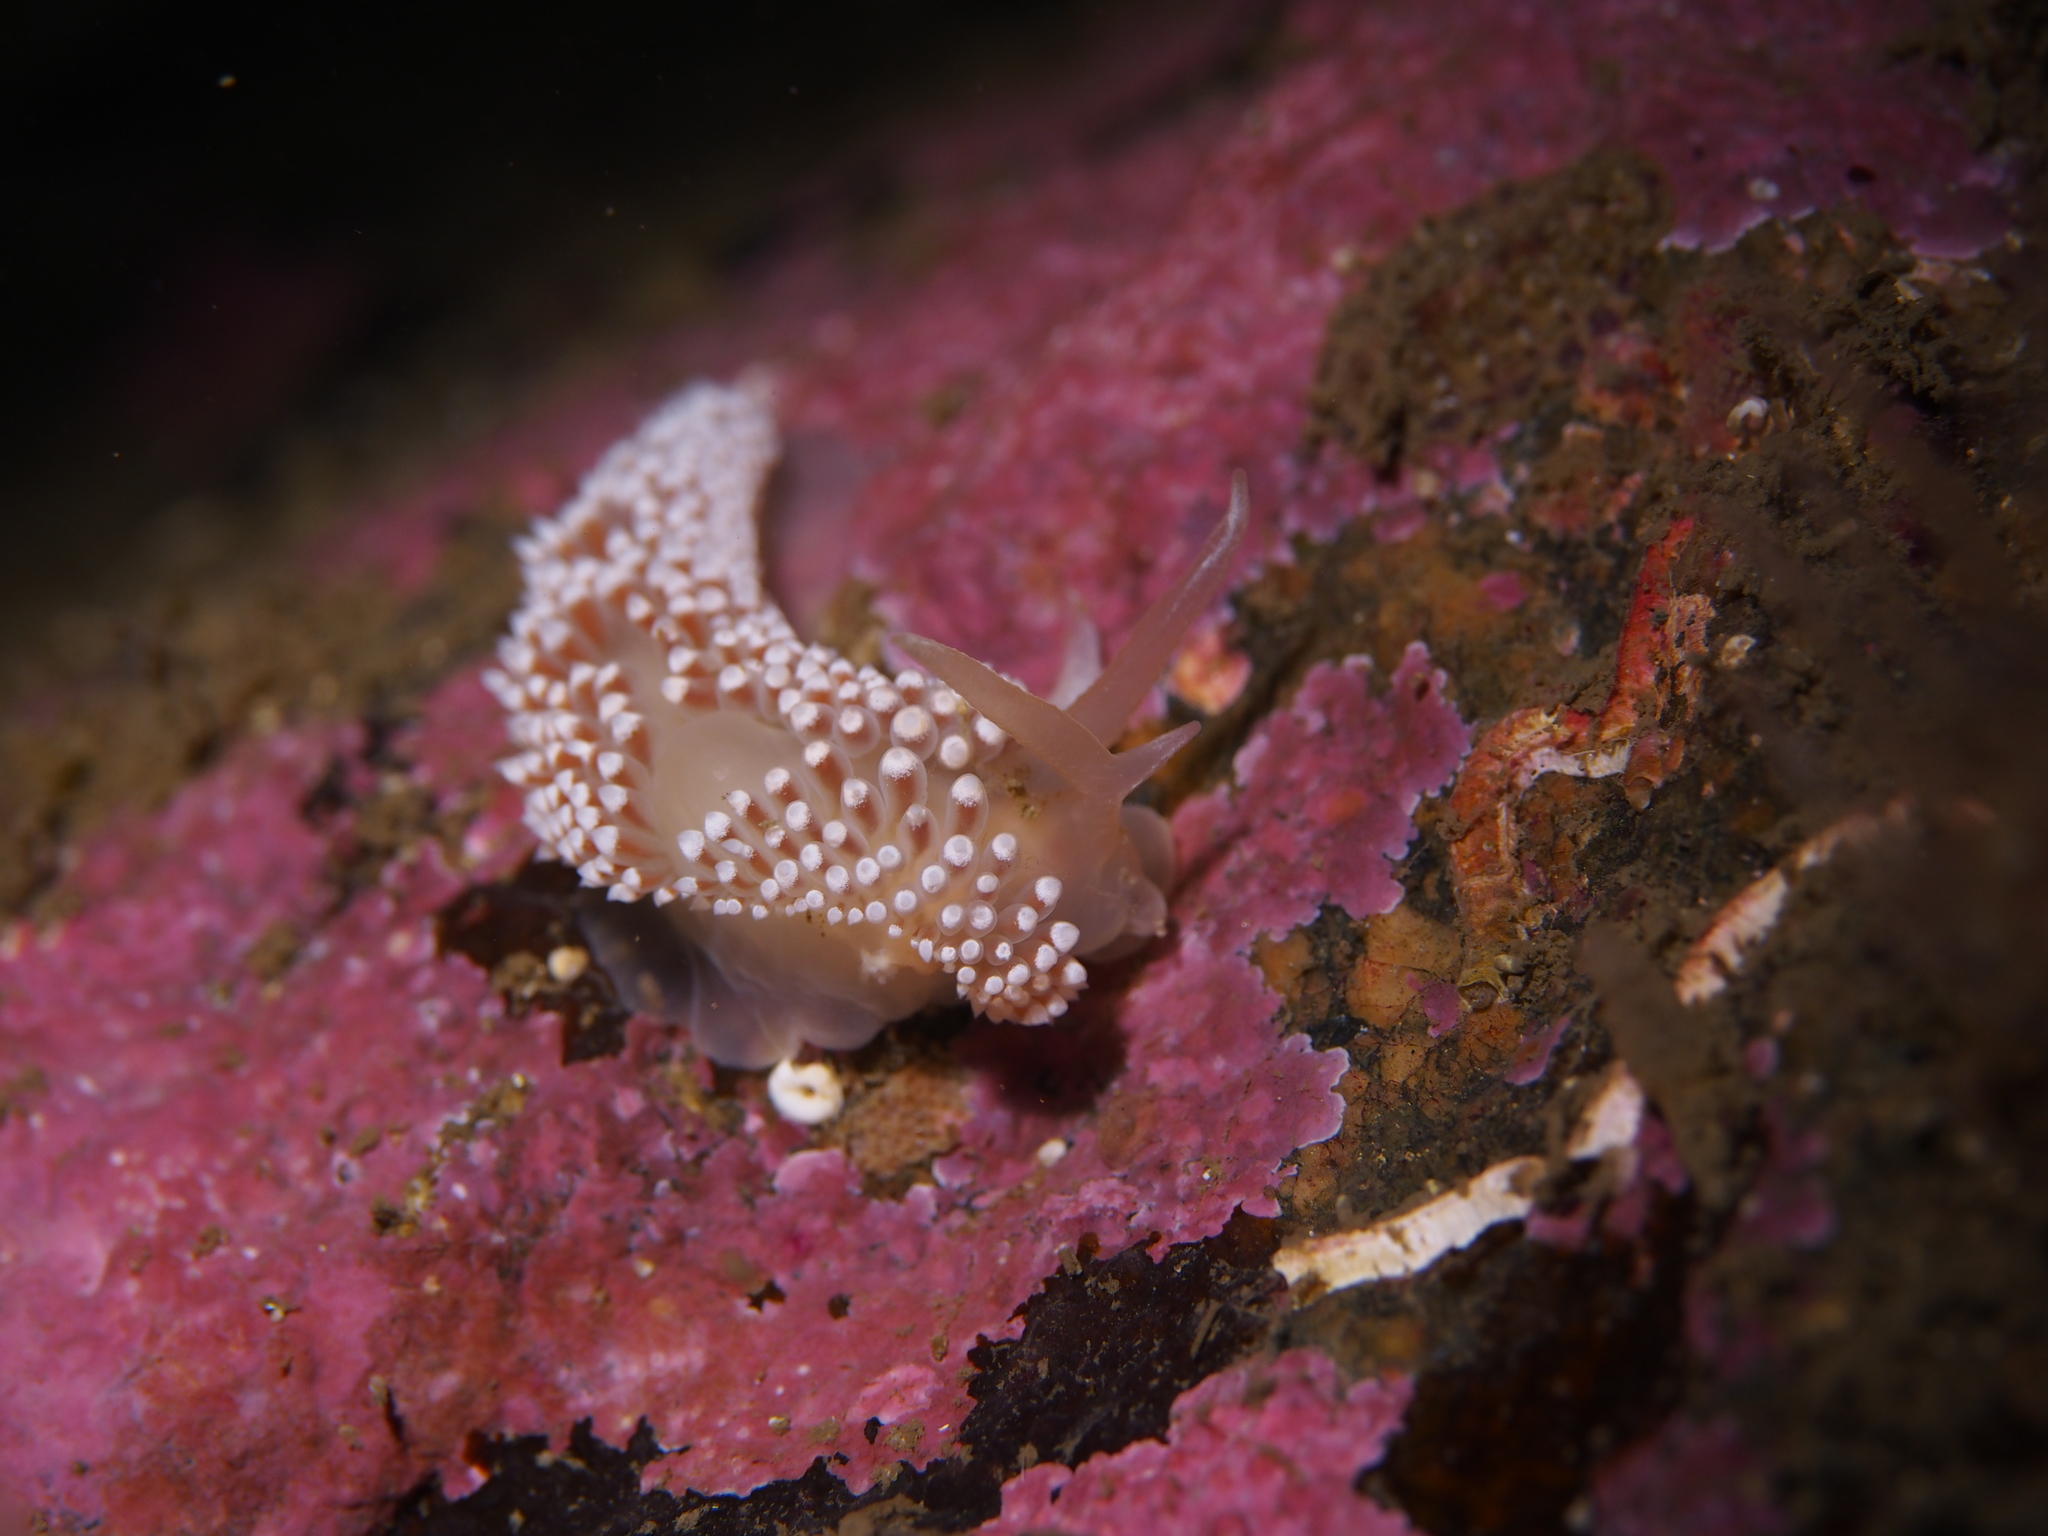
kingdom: Animalia
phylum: Mollusca
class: Gastropoda
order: Nudibranchia
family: Coryphellidae
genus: Coryphella
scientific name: Coryphella verrucosa
